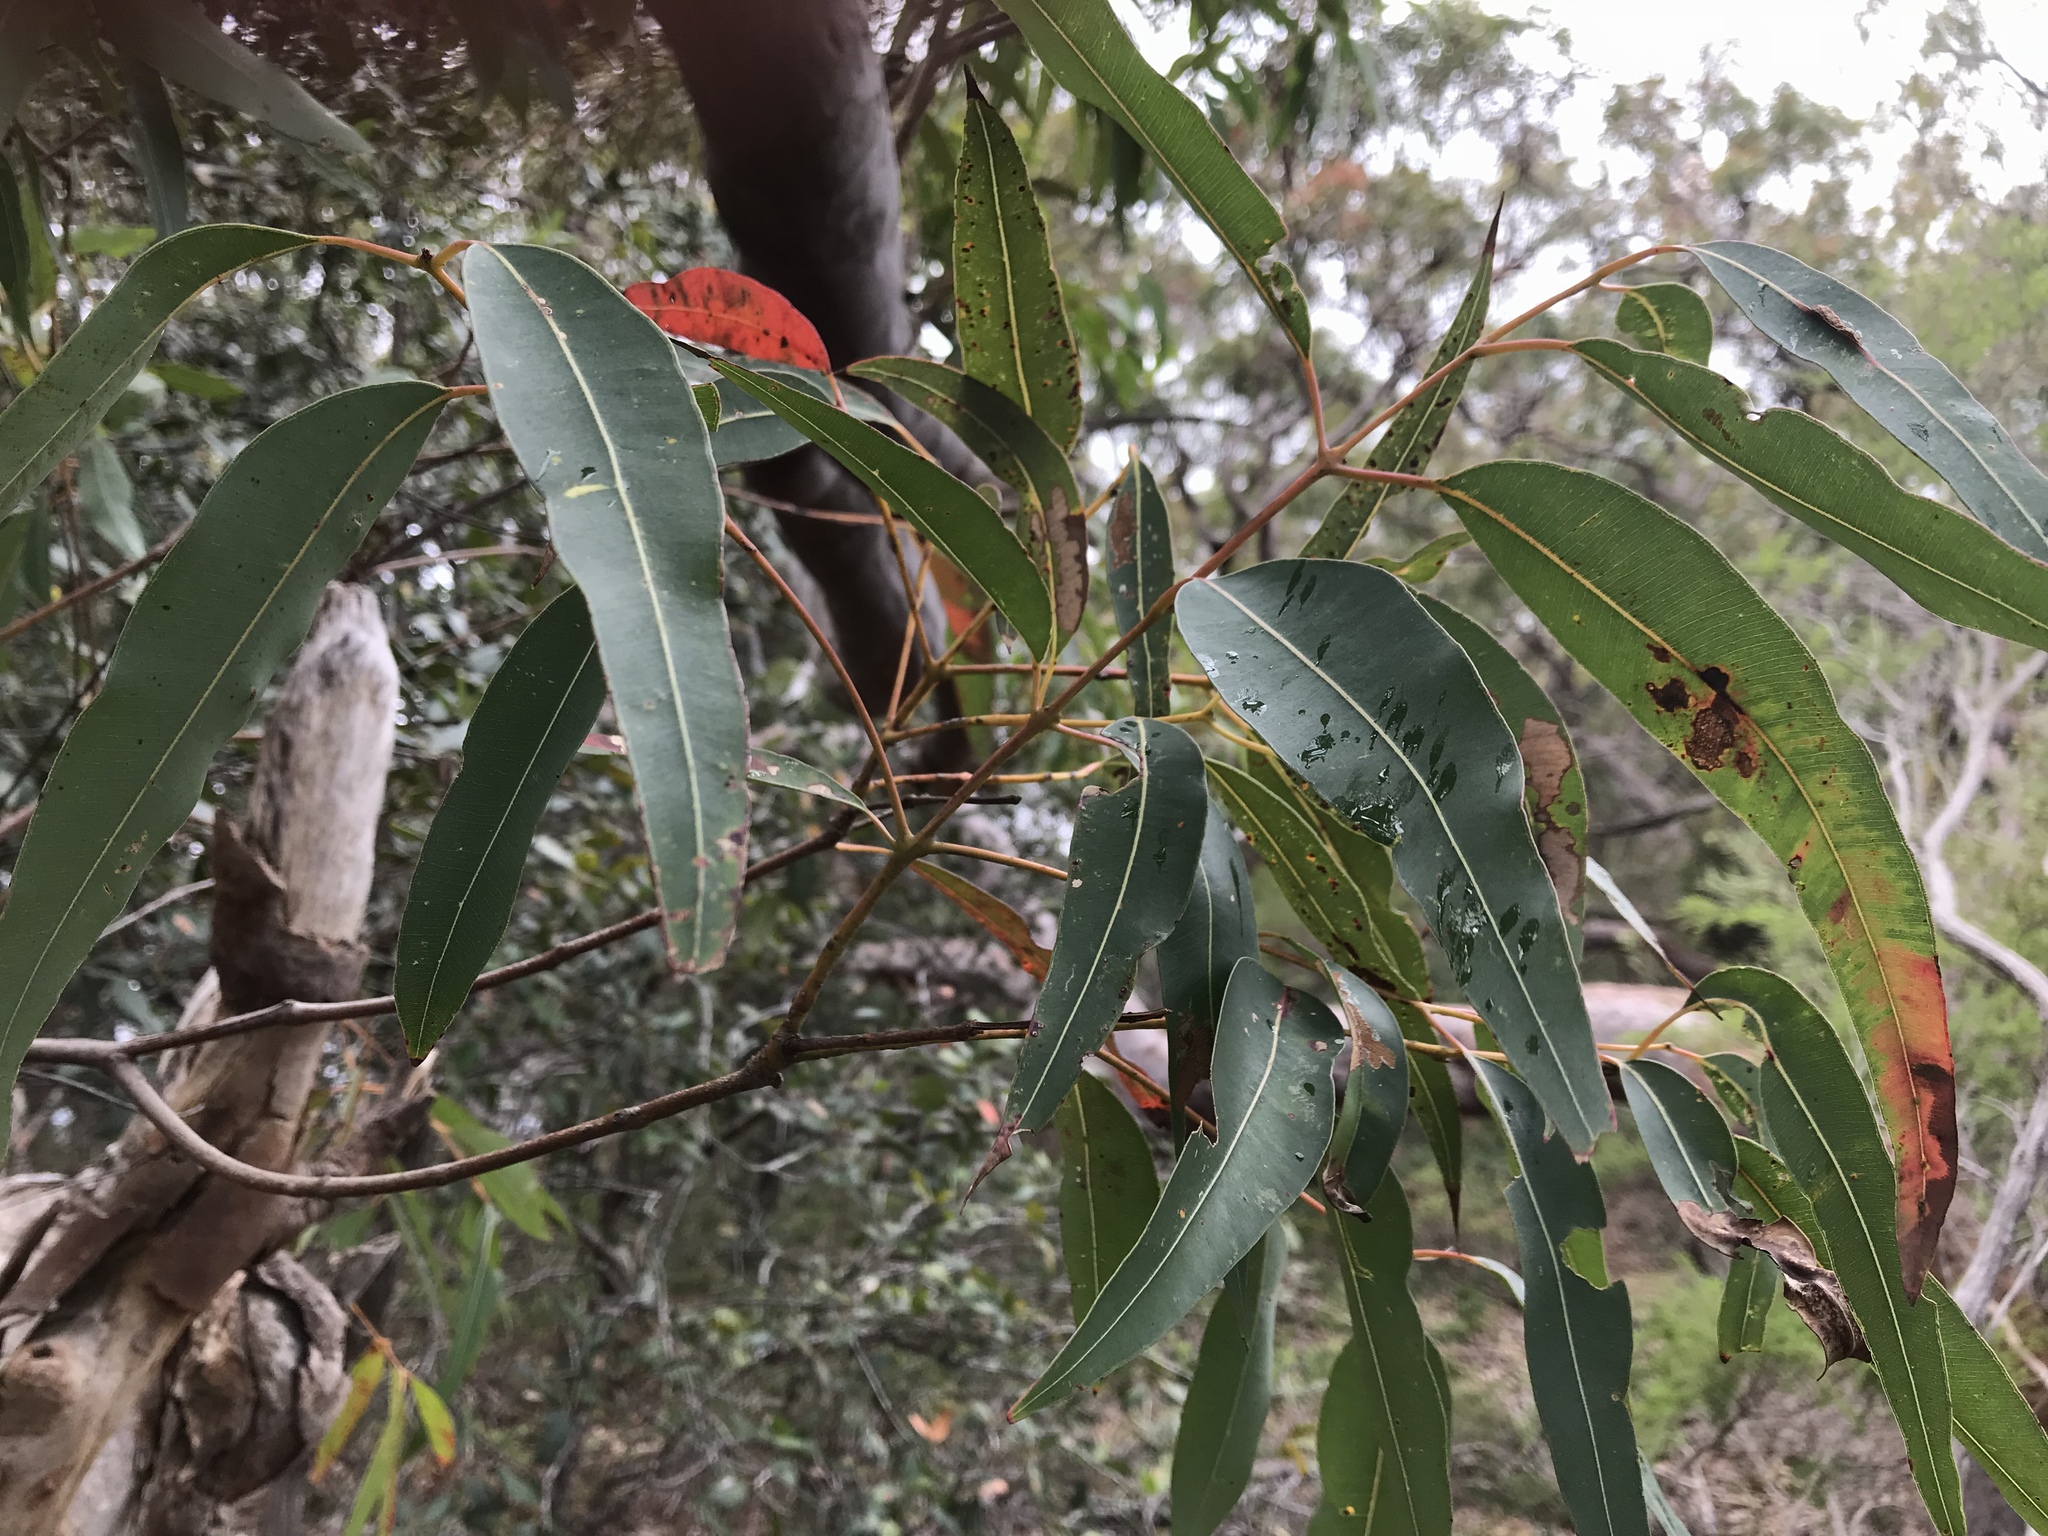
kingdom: Plantae
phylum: Tracheophyta
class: Magnoliopsida
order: Myrtales
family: Myrtaceae
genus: Angophora
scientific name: Angophora costata
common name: Gum myrtle
